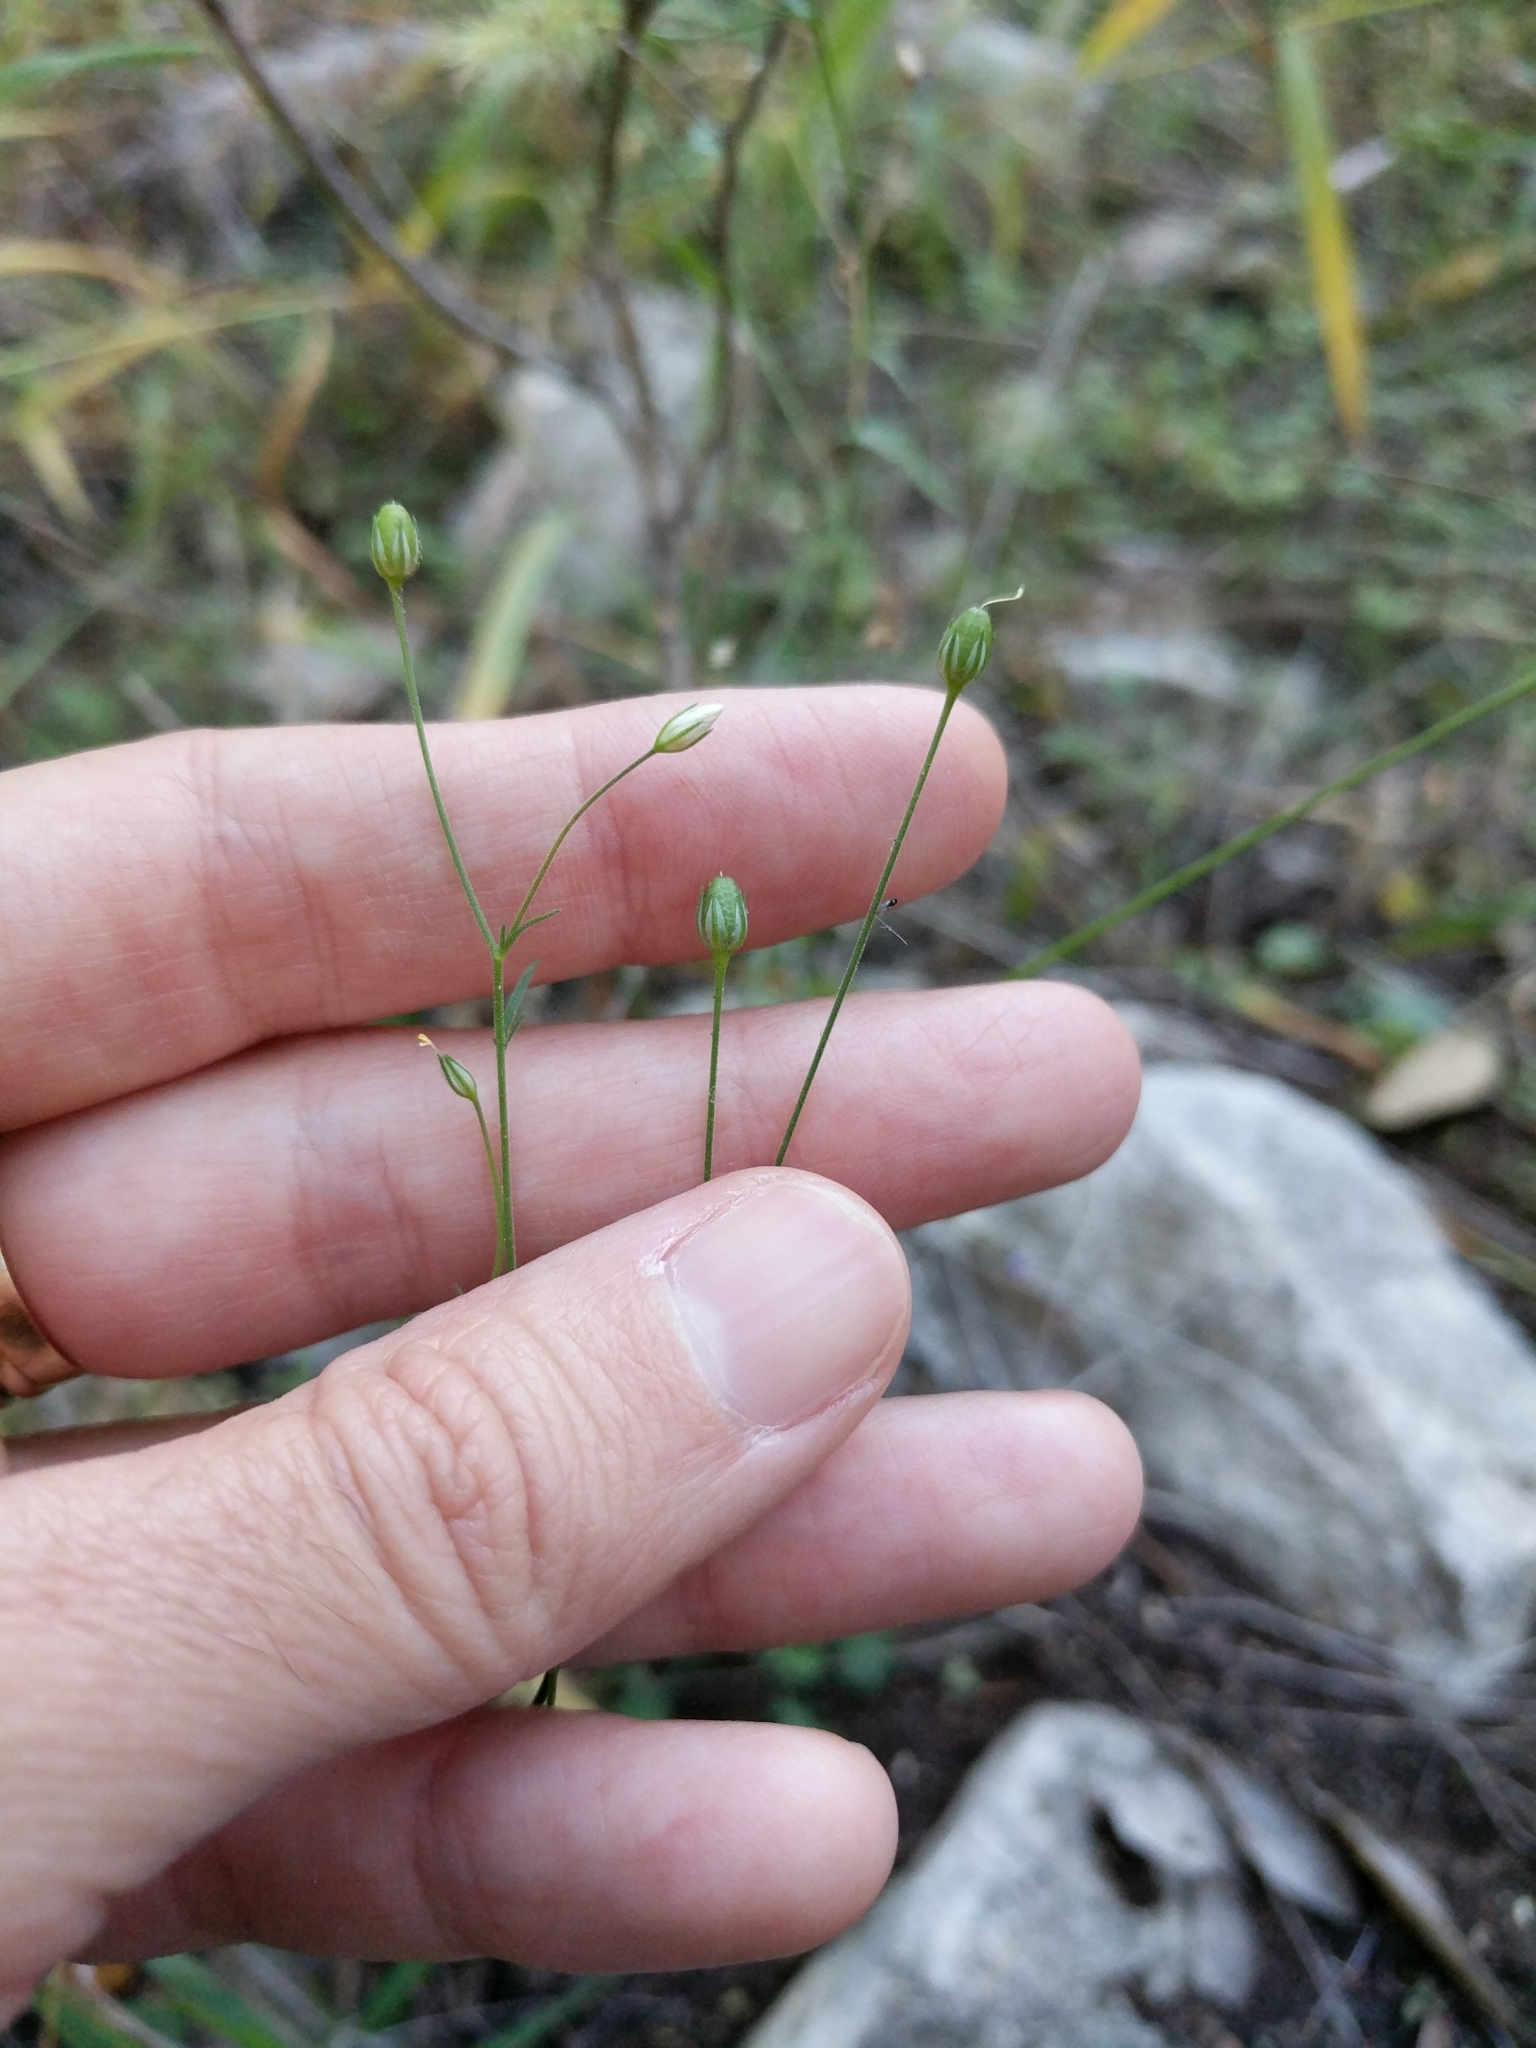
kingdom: Plantae
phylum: Tracheophyta
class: Magnoliopsida
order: Ericales
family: Polemoniaceae
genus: Giliastrum
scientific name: Giliastrum incisum
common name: Splitleaf gilia
